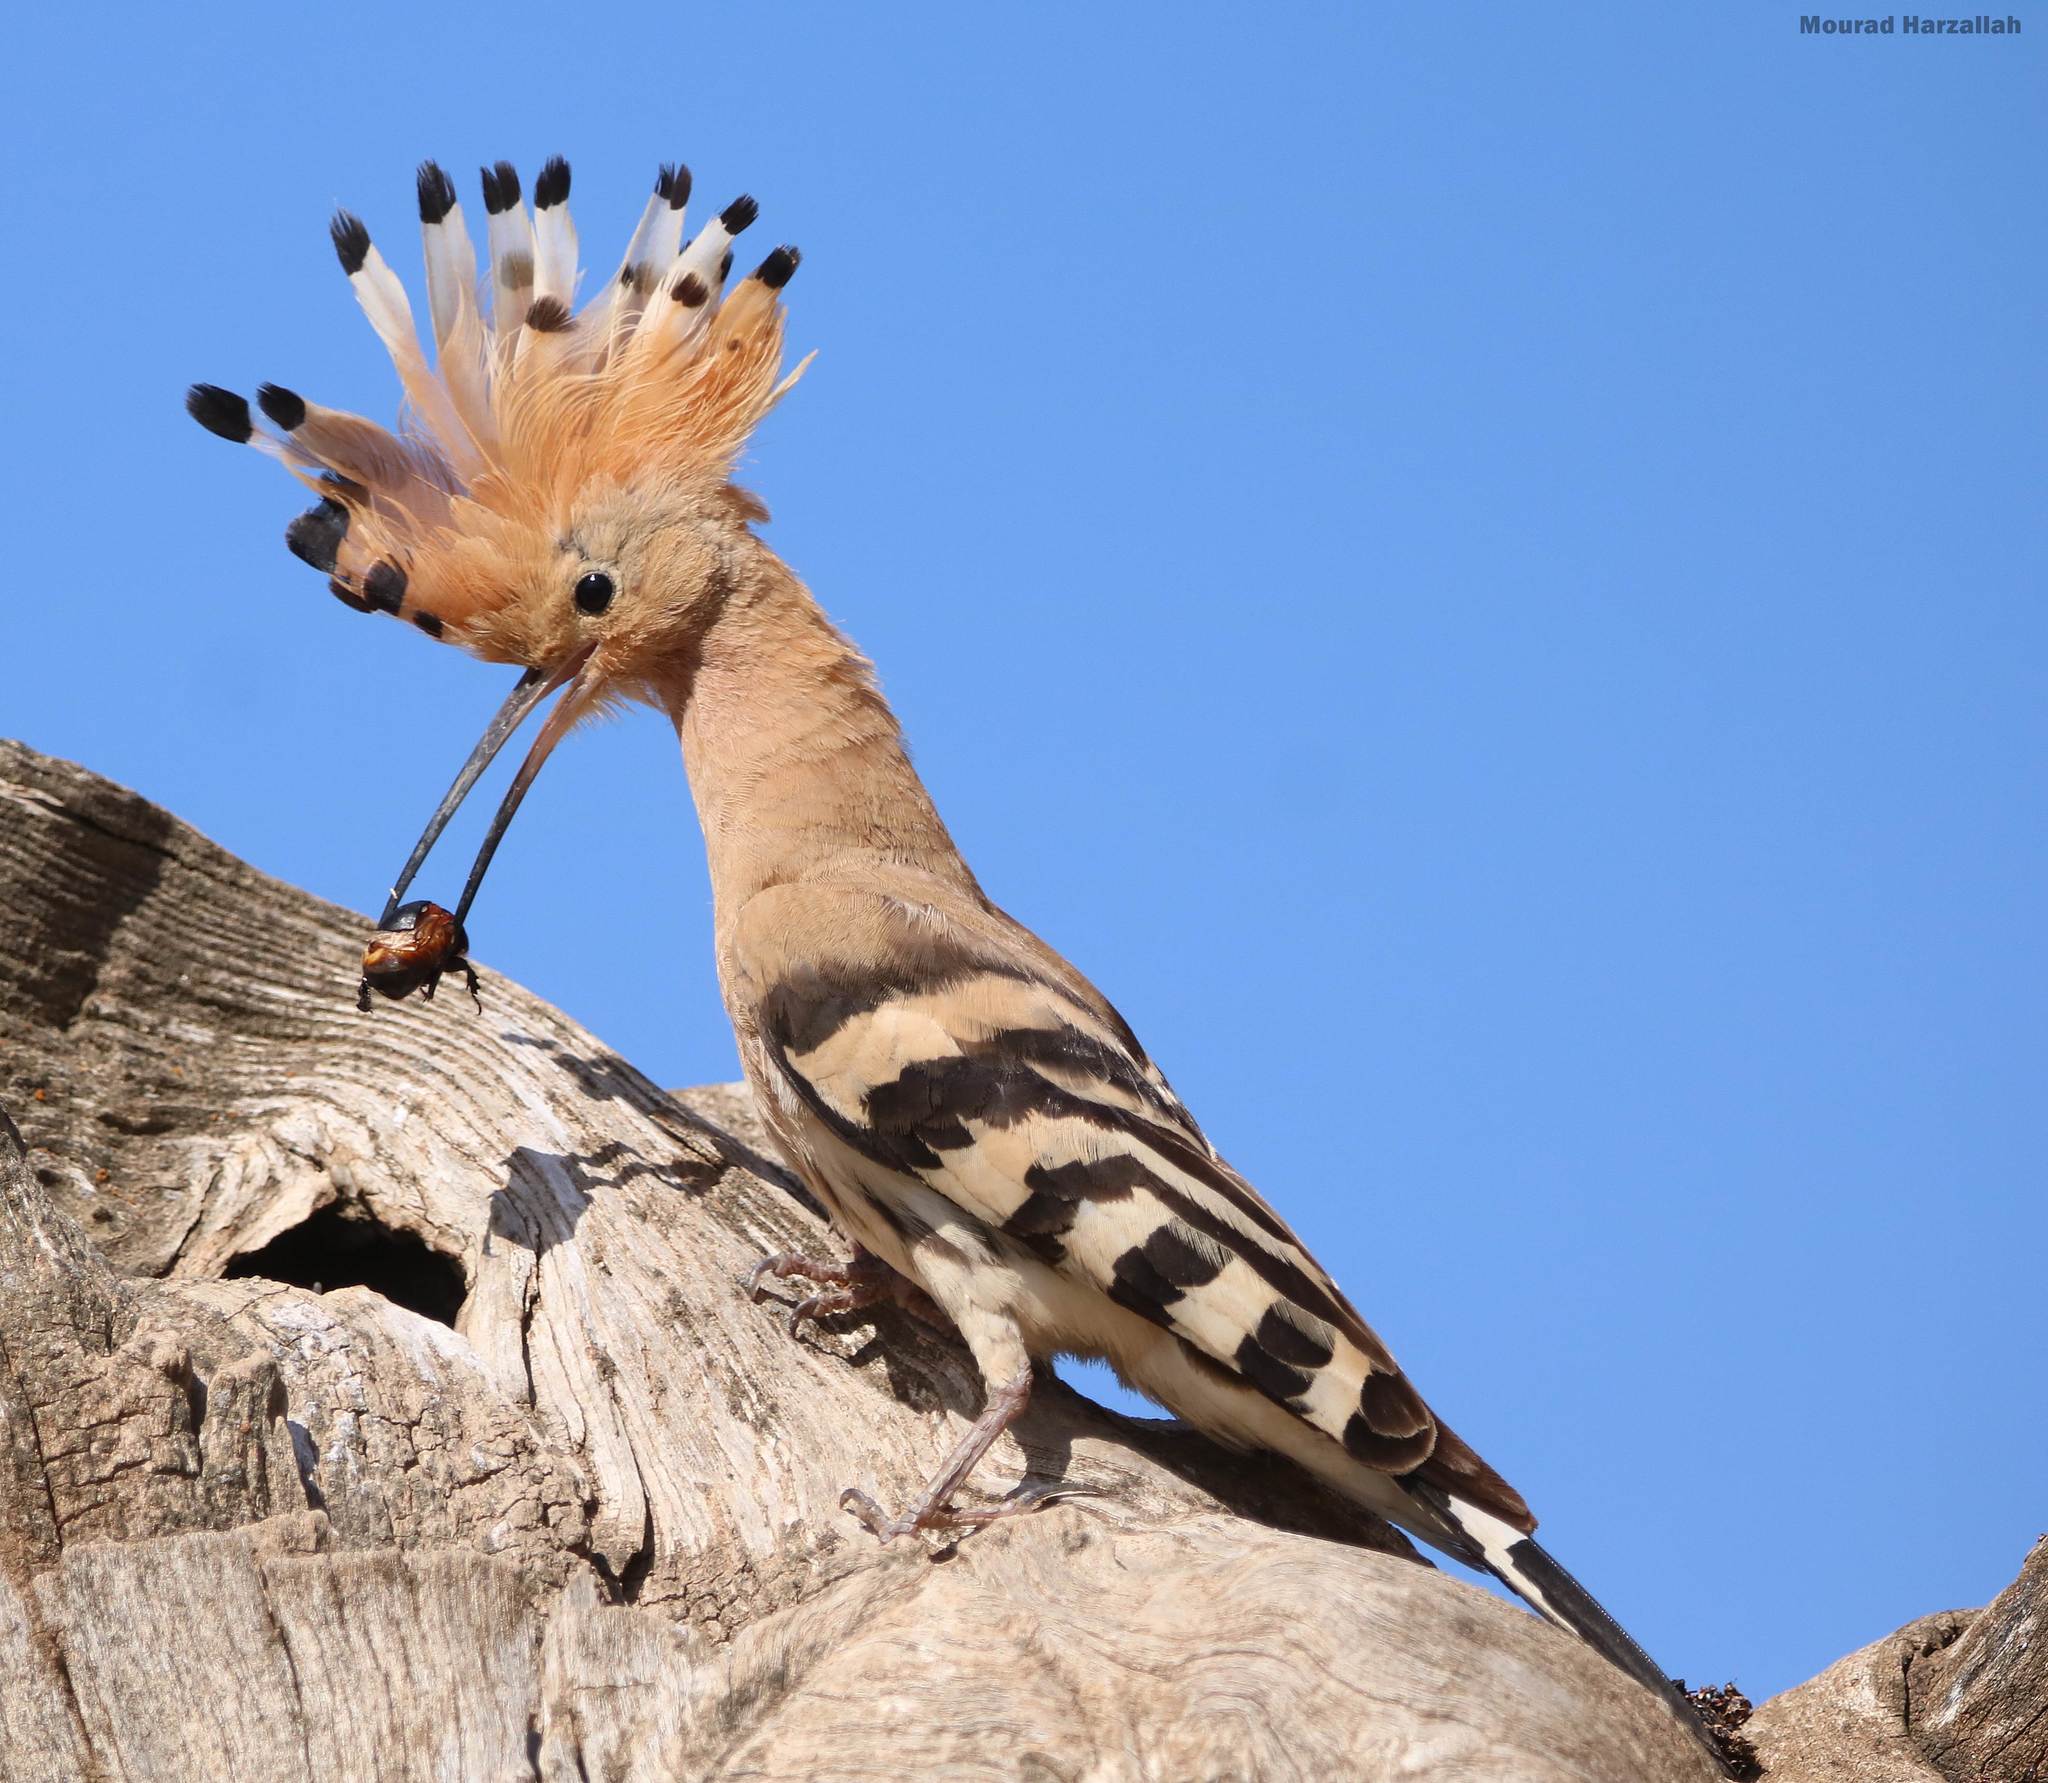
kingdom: Animalia
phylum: Chordata
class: Aves
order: Bucerotiformes
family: Upupidae
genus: Upupa
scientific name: Upupa epops
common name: Eurasian hoopoe
